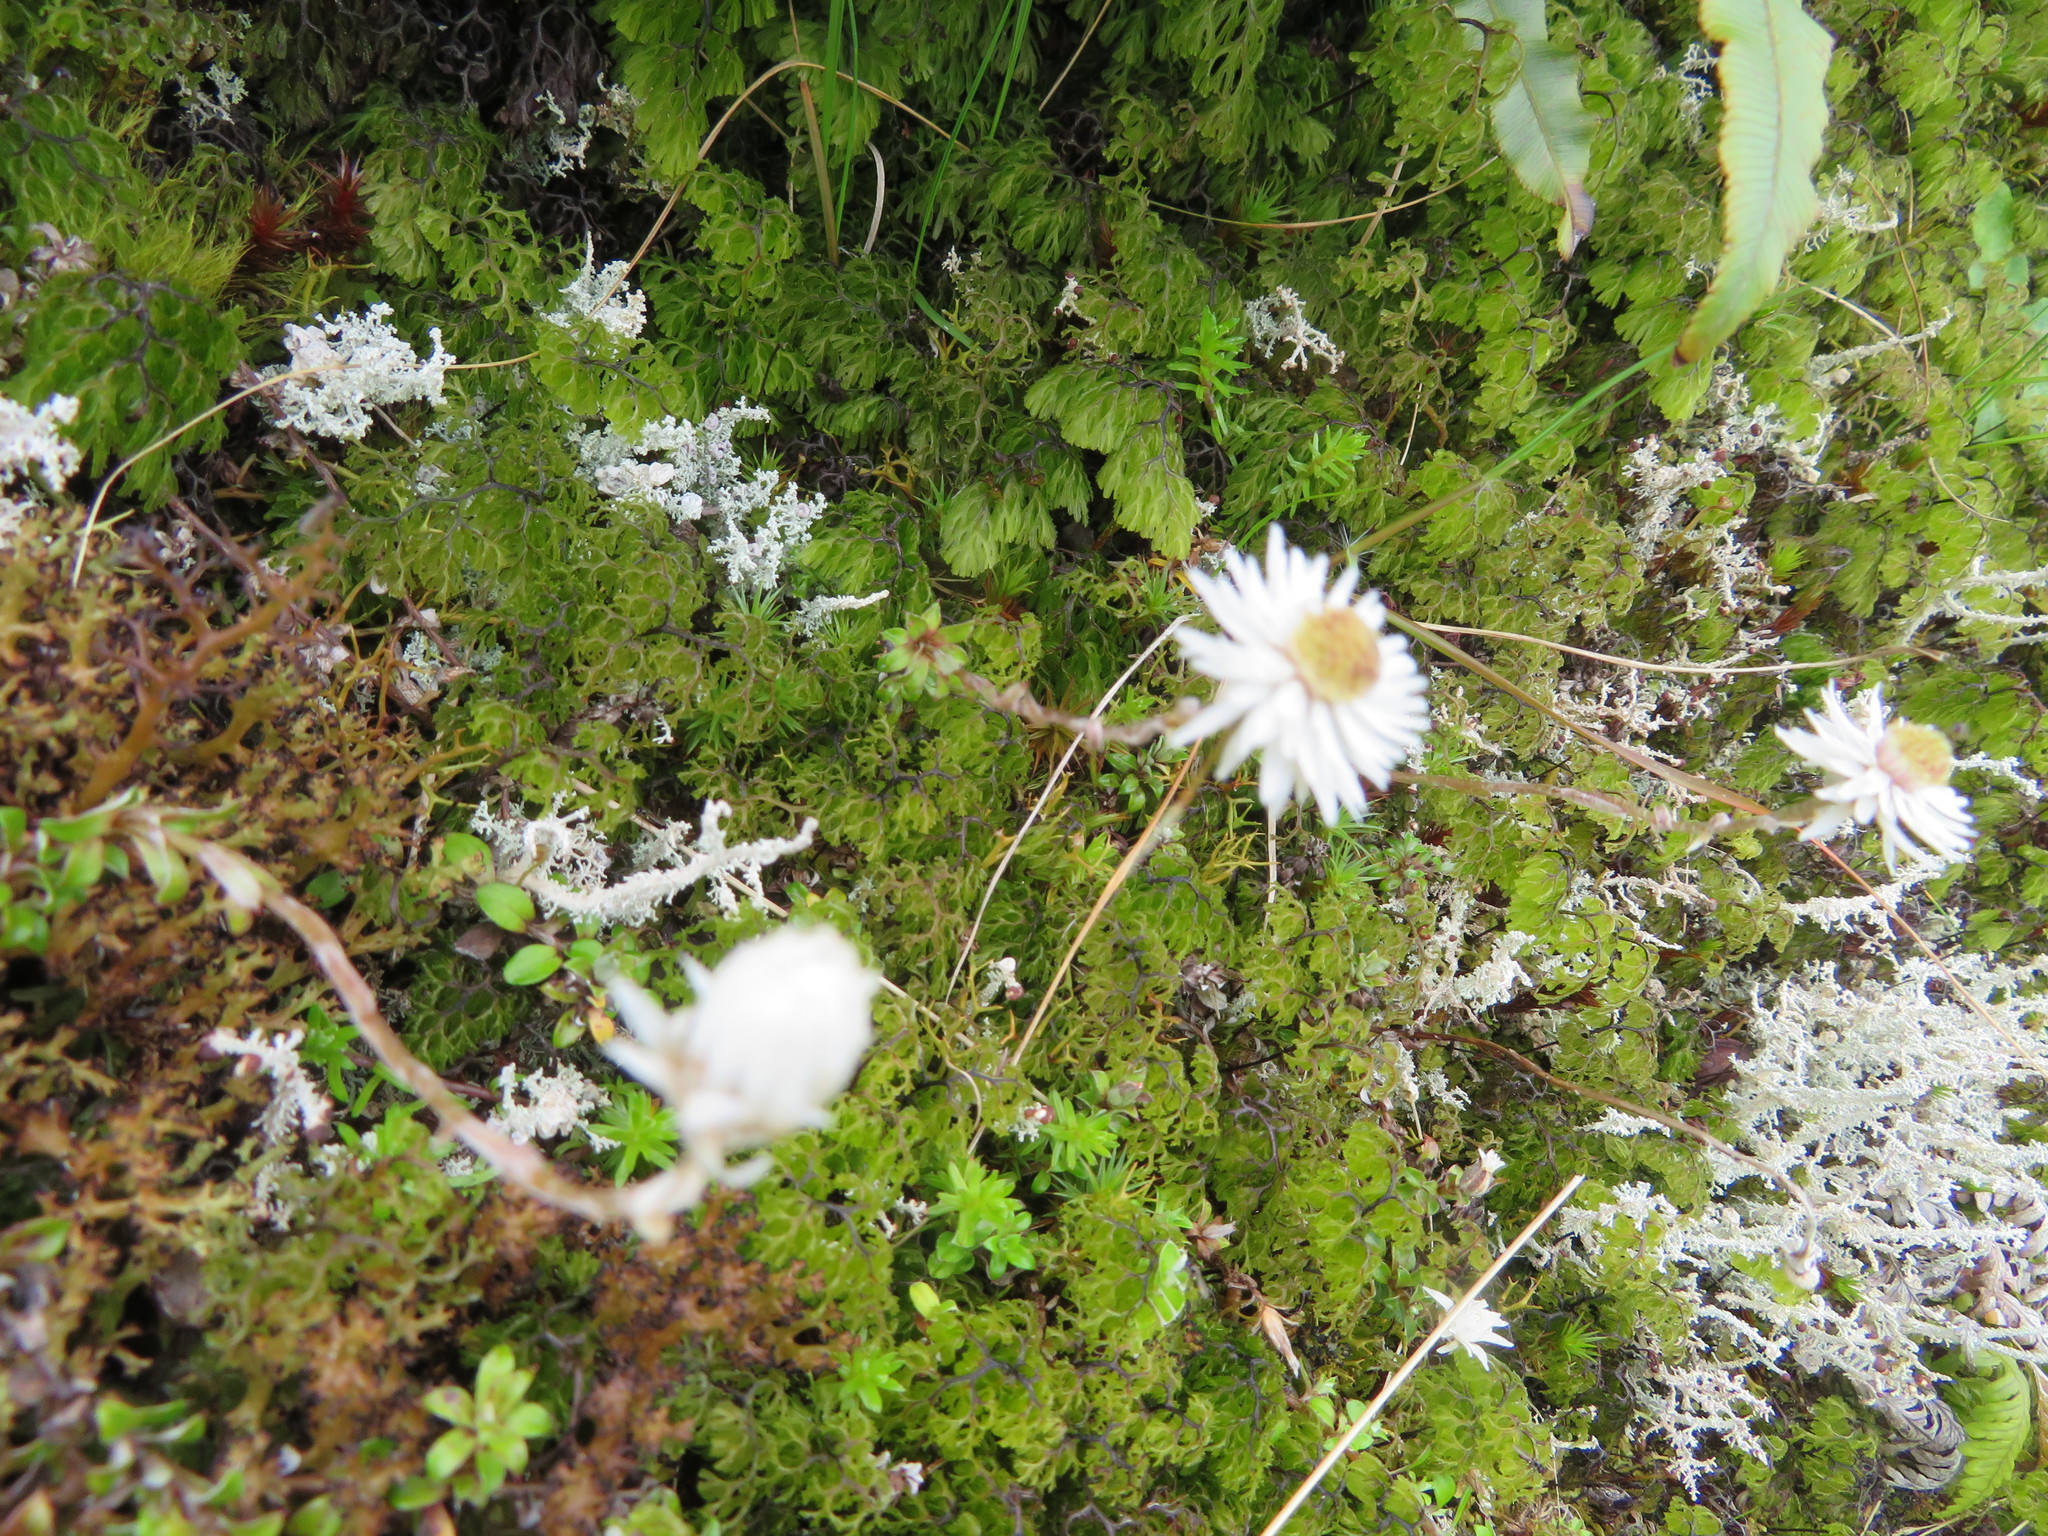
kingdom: Plantae
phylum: Tracheophyta
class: Magnoliopsida
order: Asterales
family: Asteraceae
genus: Anaphalioides
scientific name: Anaphalioides bellidioides
